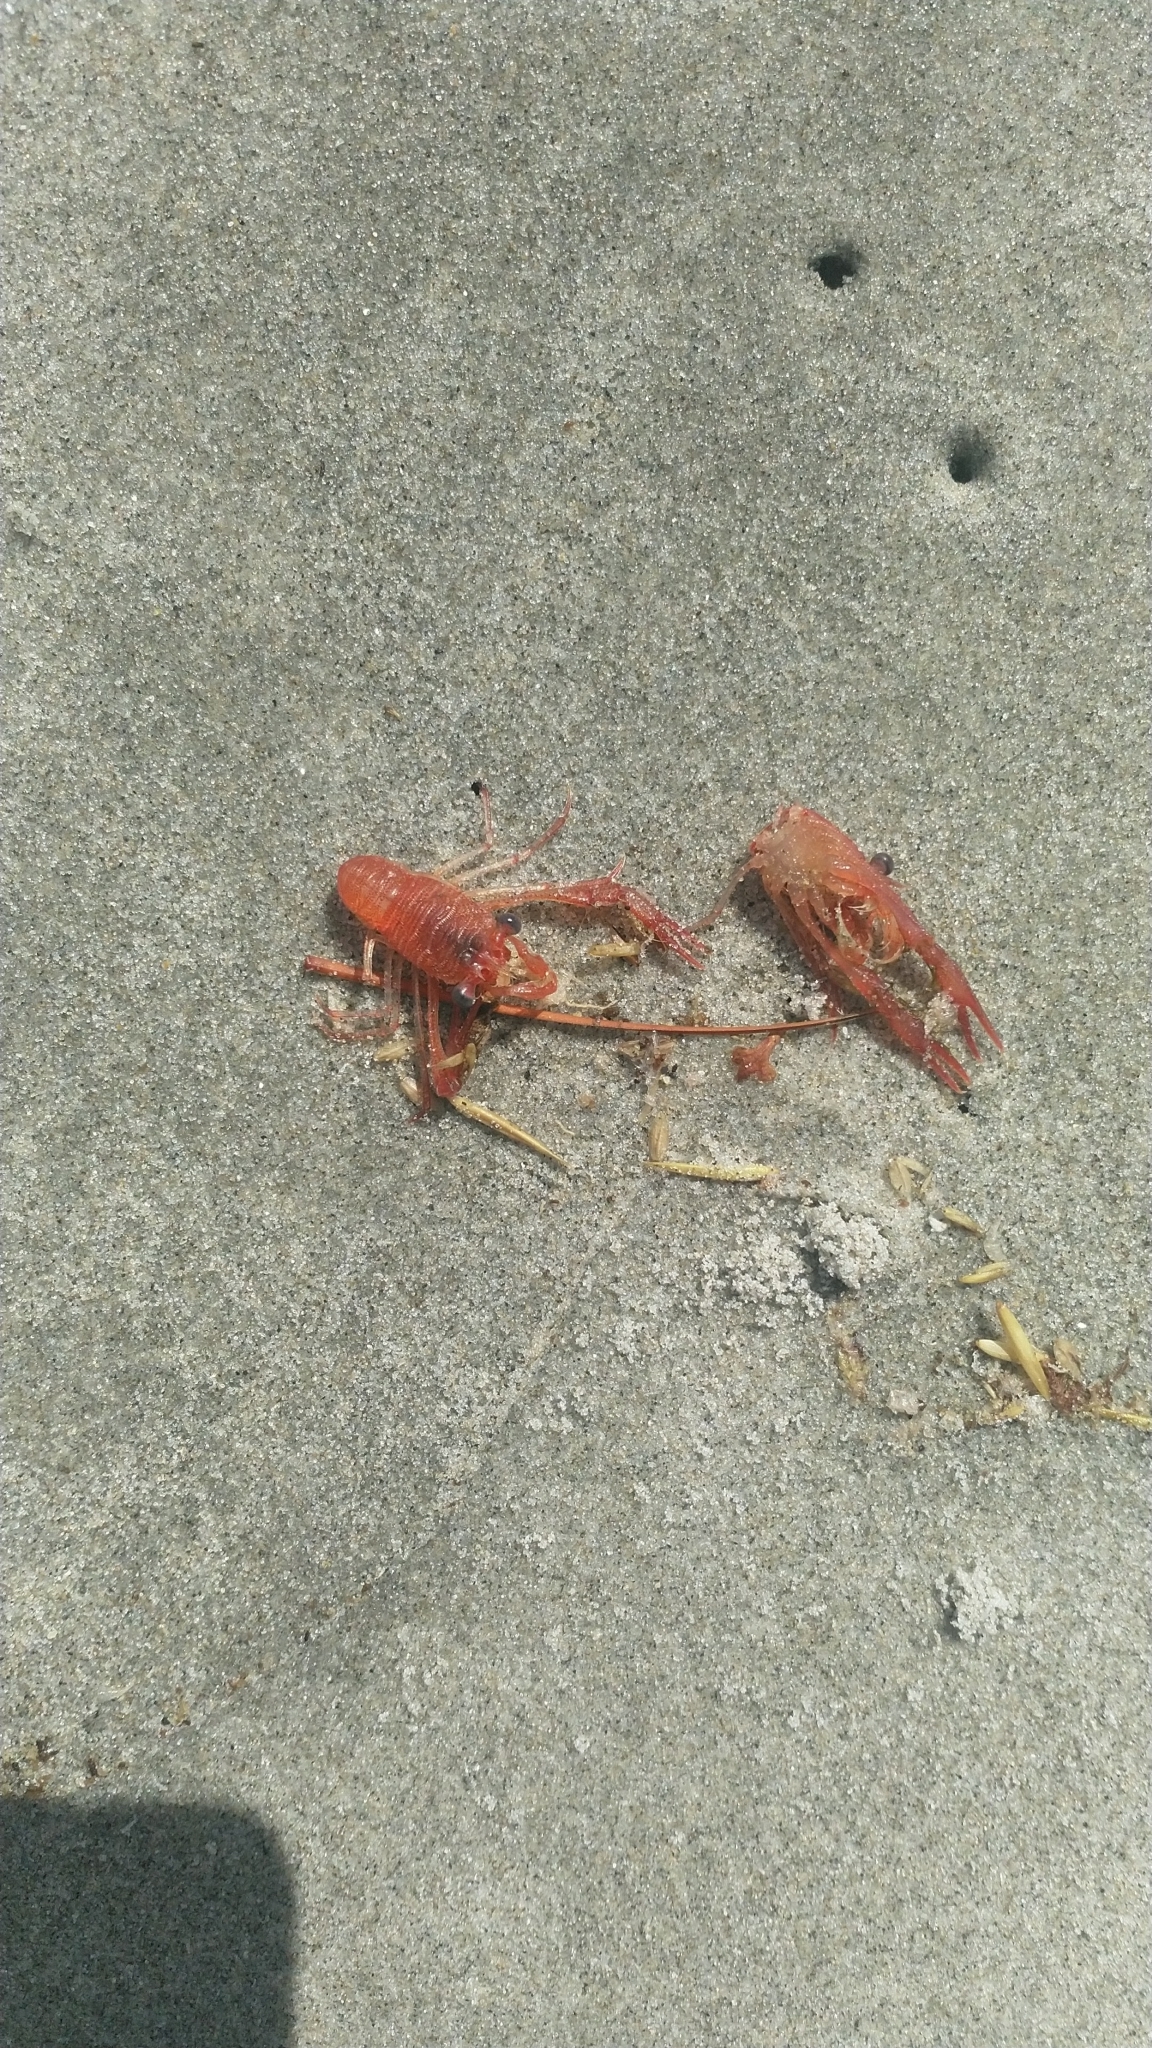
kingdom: Animalia
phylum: Arthropoda
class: Malacostraca
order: Decapoda
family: Munididae
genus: Grimothea
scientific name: Grimothea gregaria
